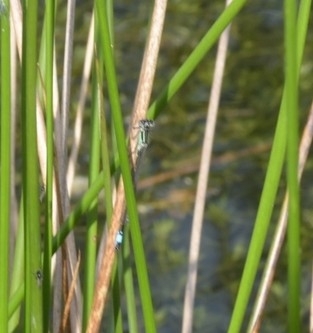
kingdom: Animalia
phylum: Arthropoda
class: Insecta
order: Odonata
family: Coenagrionidae
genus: Ischnura
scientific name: Ischnura elegans
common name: Blue-tailed damselfly
